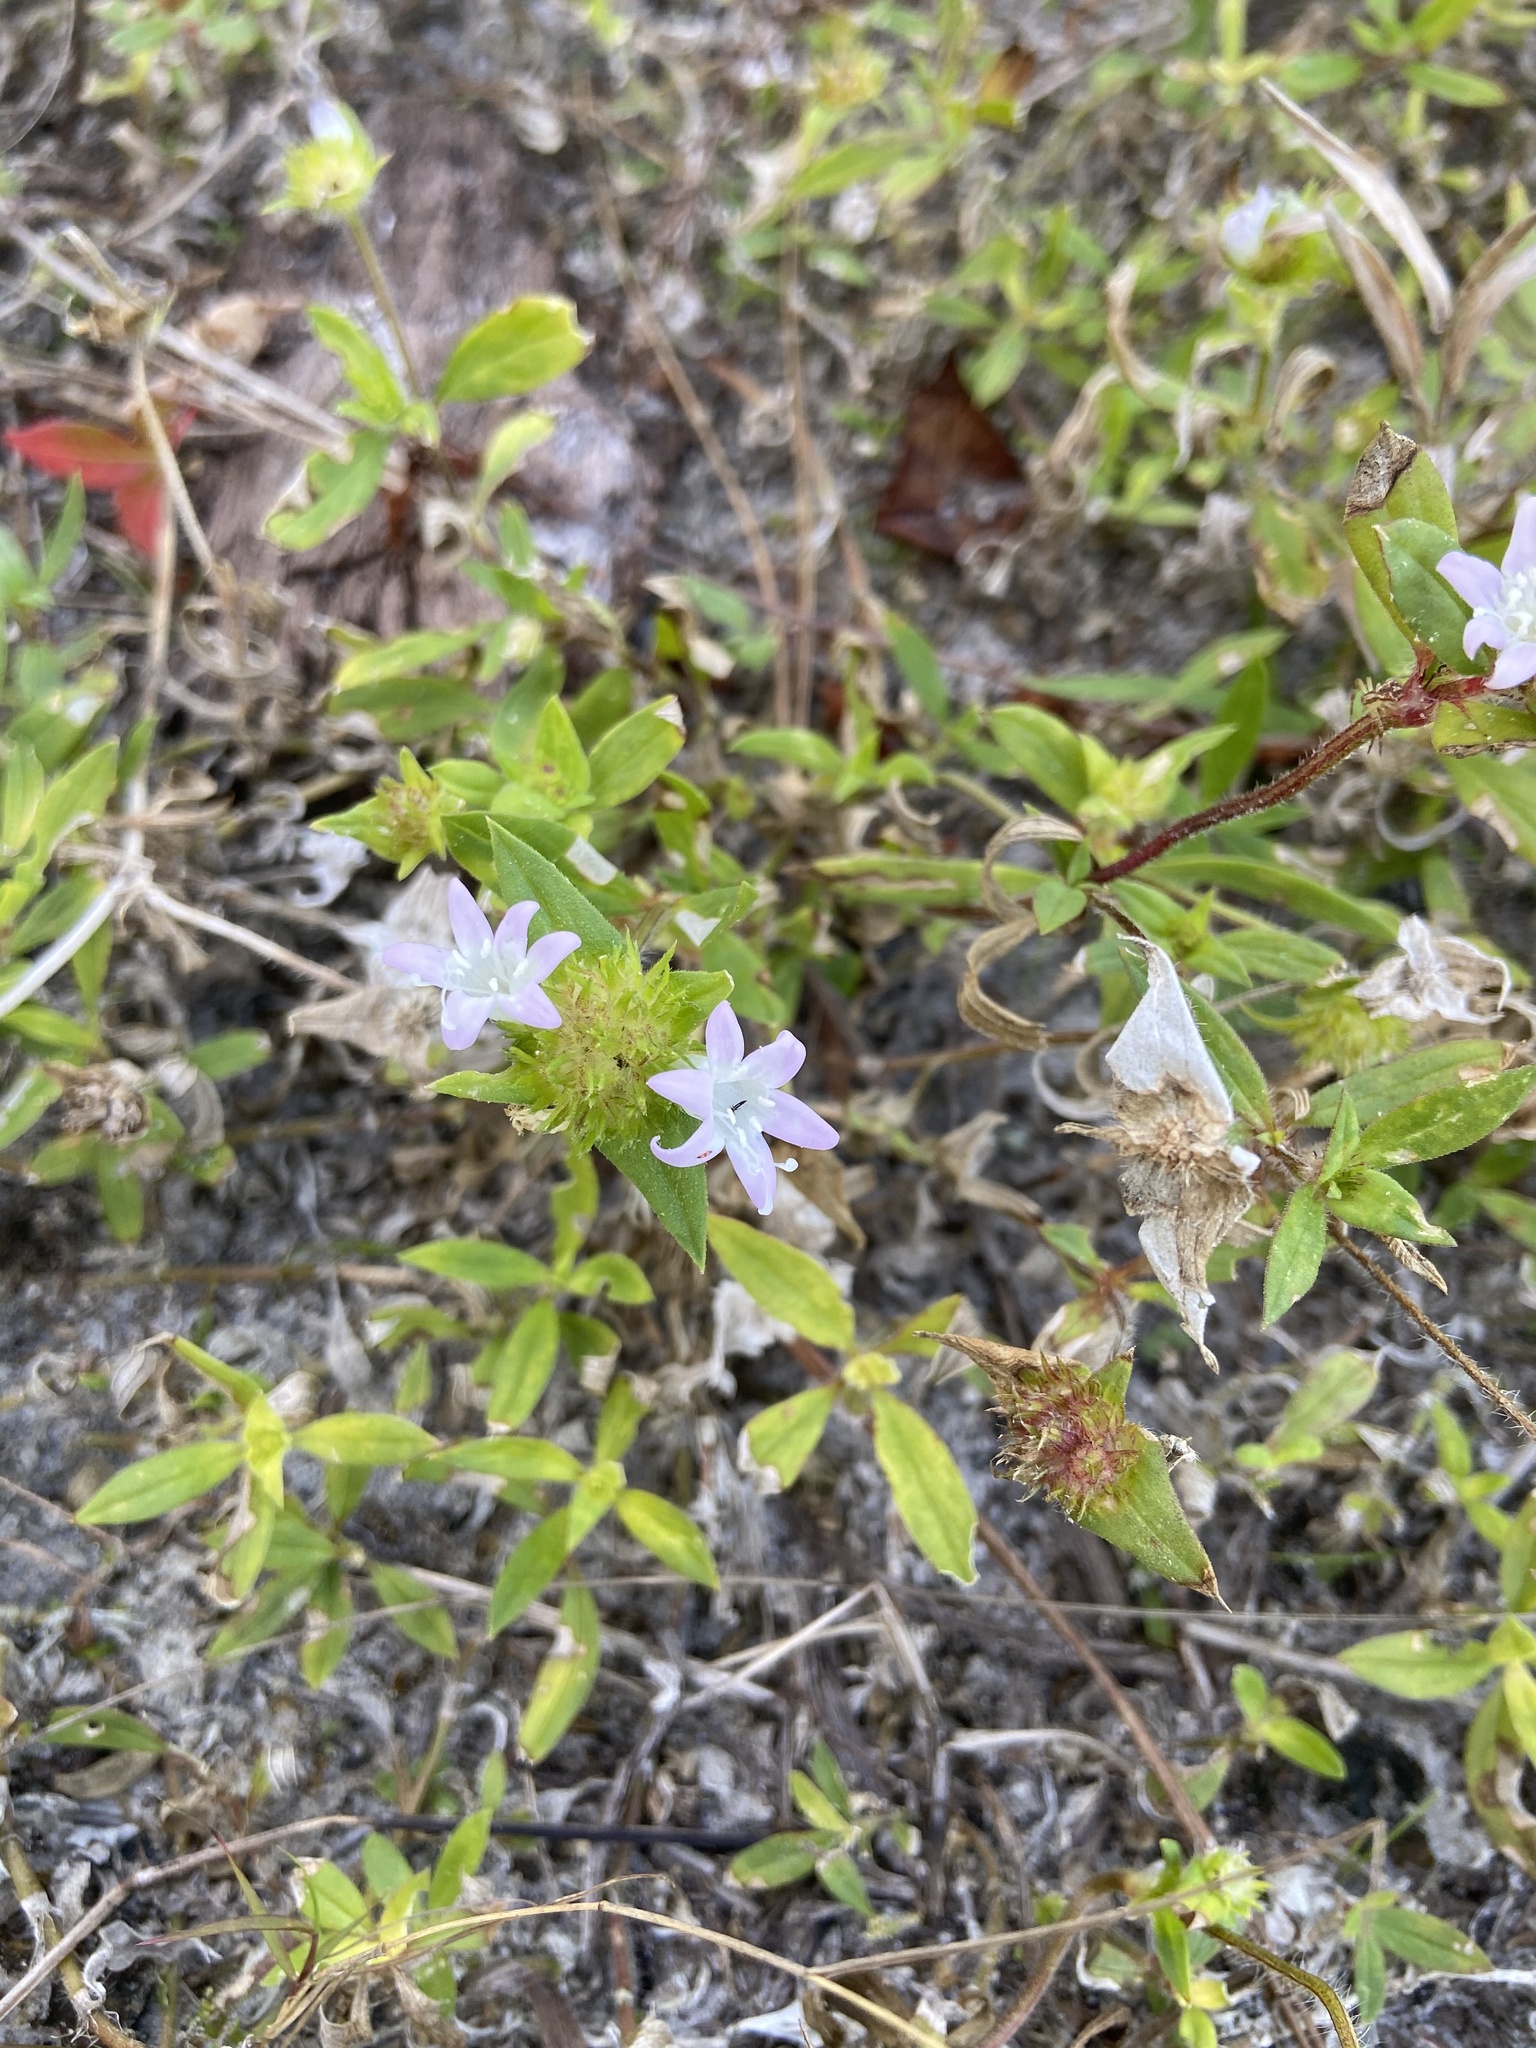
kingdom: Plantae
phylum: Tracheophyta
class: Magnoliopsida
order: Gentianales
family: Rubiaceae
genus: Richardia
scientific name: Richardia grandiflora
